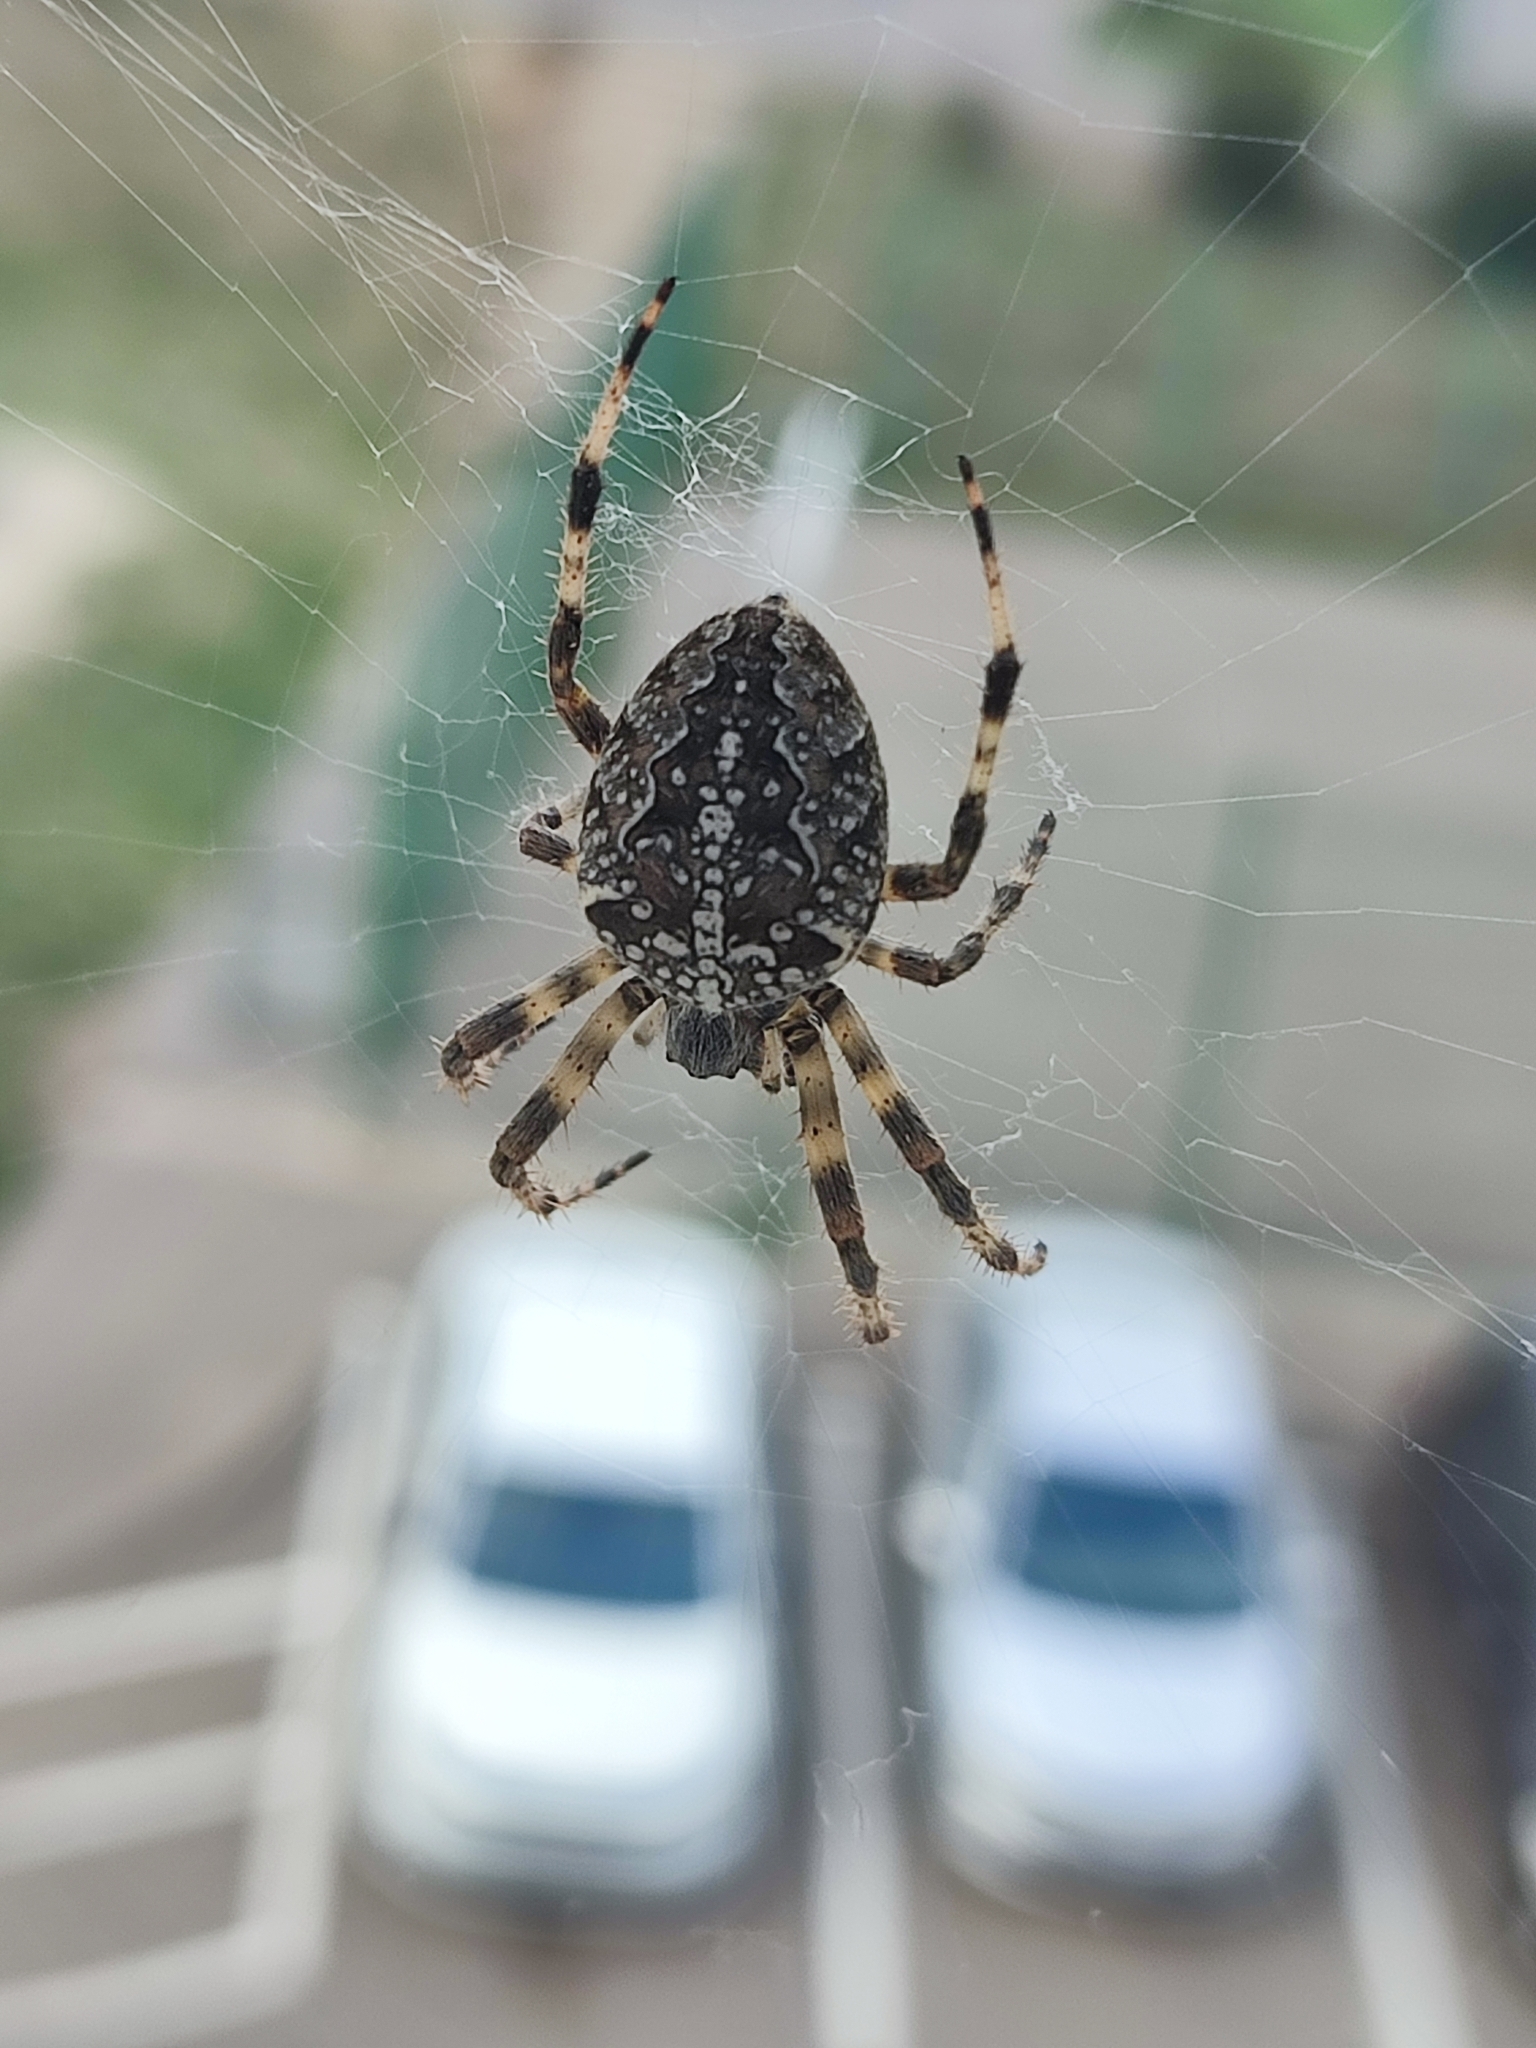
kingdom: Animalia
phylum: Arthropoda
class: Arachnida
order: Araneae
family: Araneidae
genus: Araneus
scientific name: Araneus diadematus
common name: Cross orbweaver
